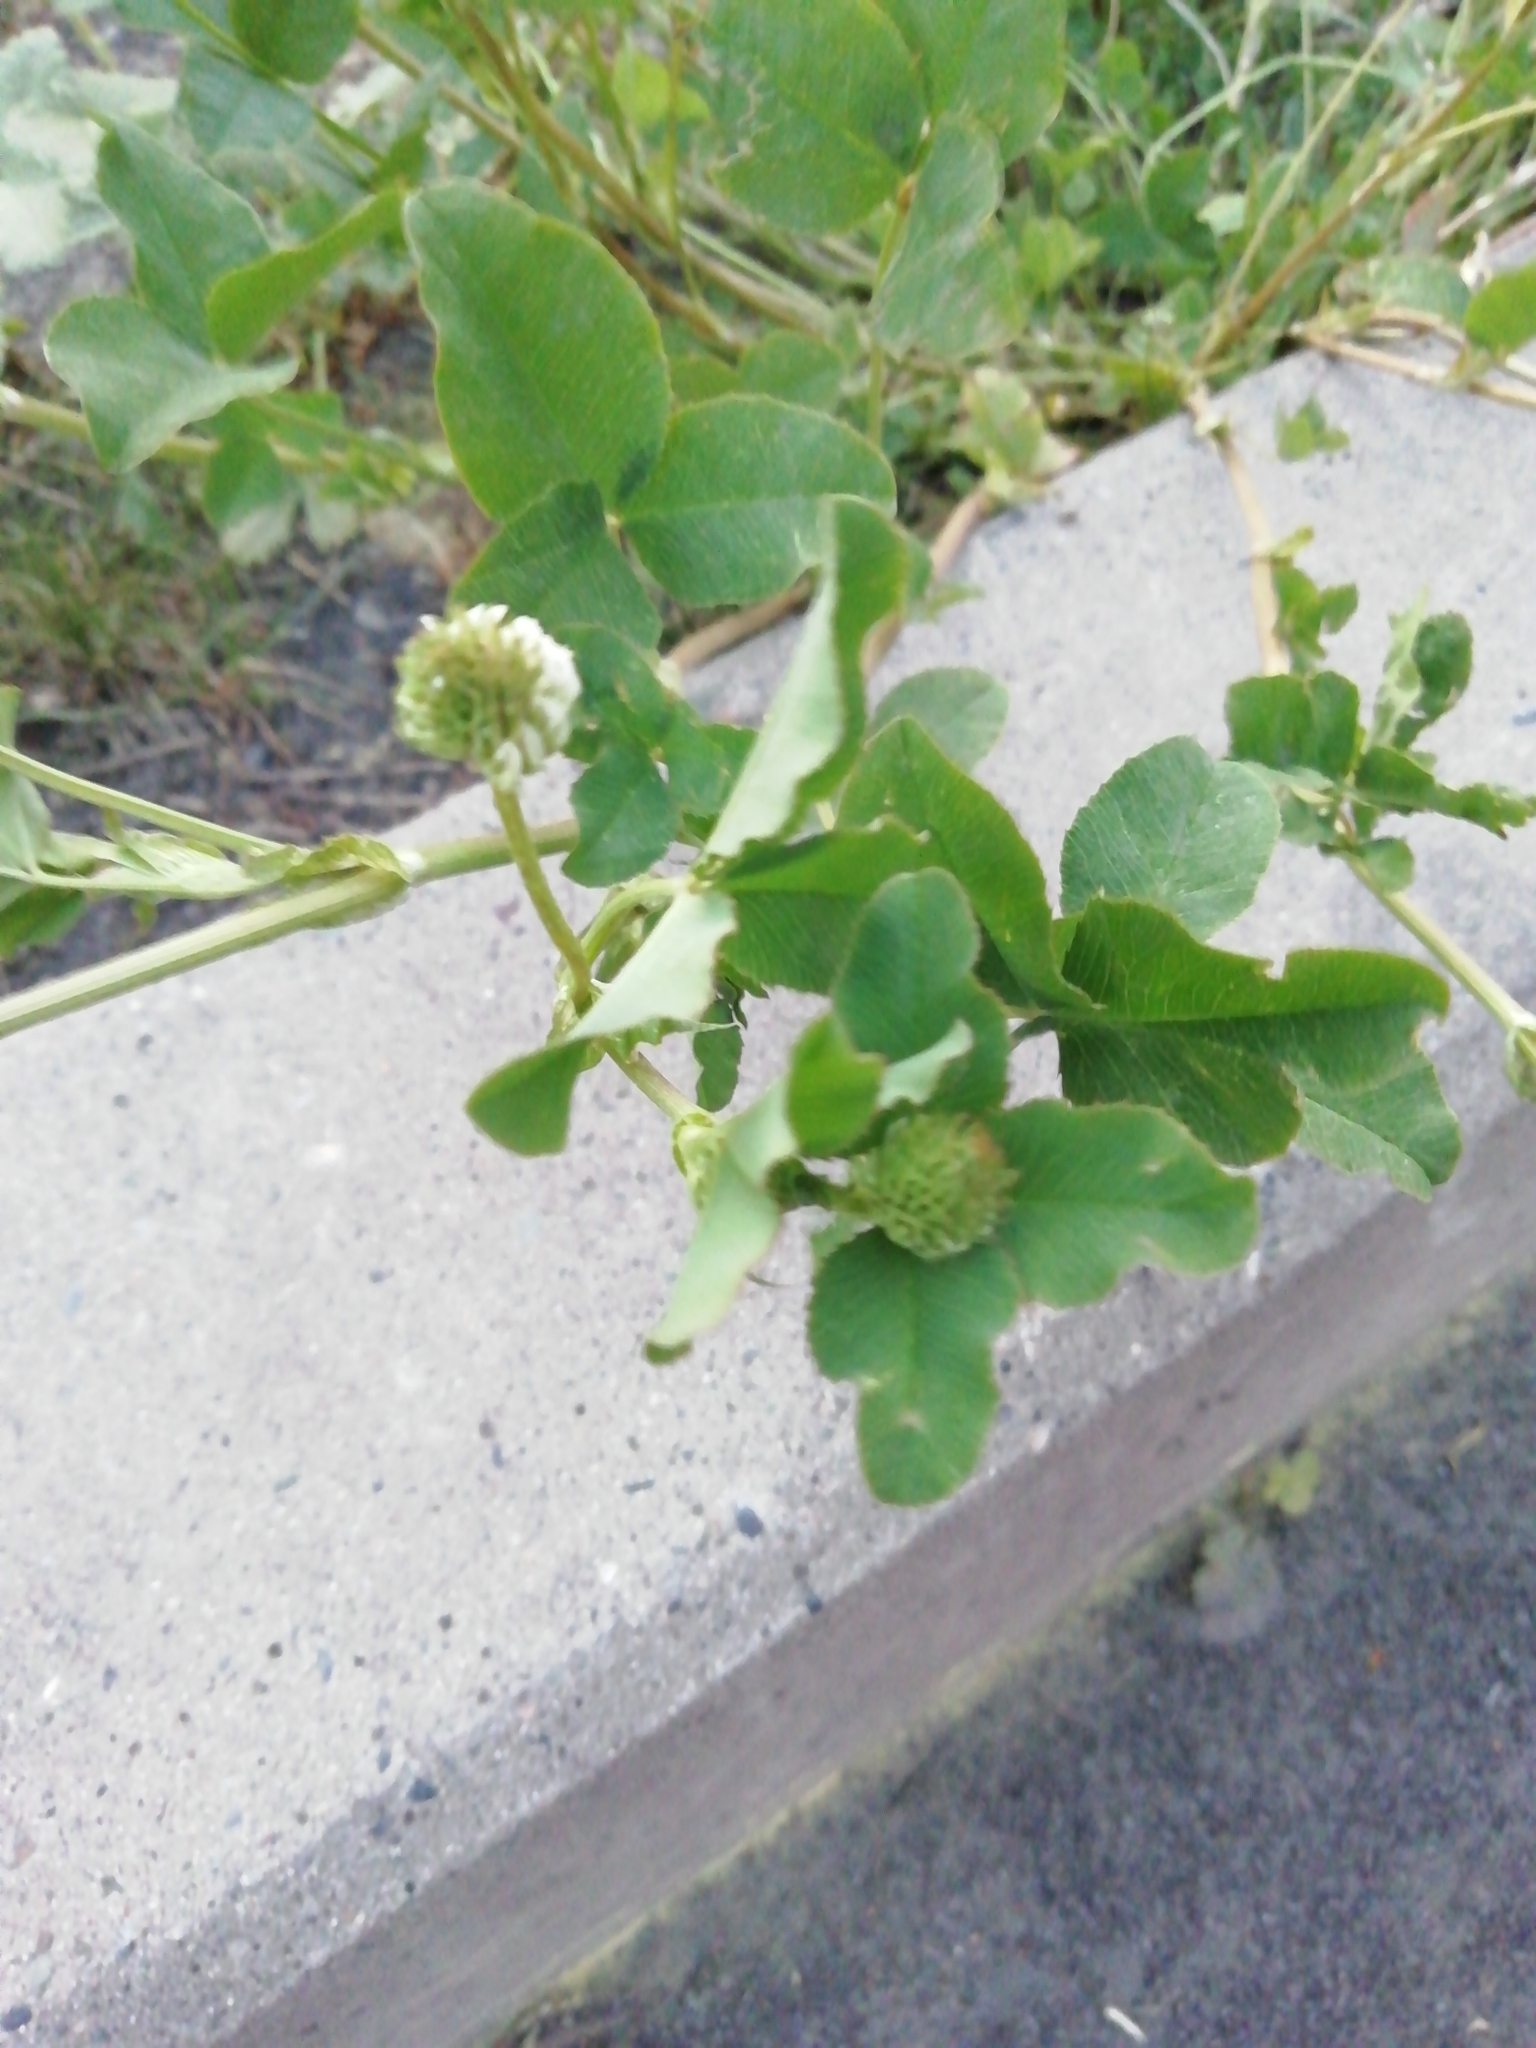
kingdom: Plantae
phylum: Tracheophyta
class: Magnoliopsida
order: Fabales
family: Fabaceae
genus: Trifolium
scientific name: Trifolium hybridum
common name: Alsike clover
